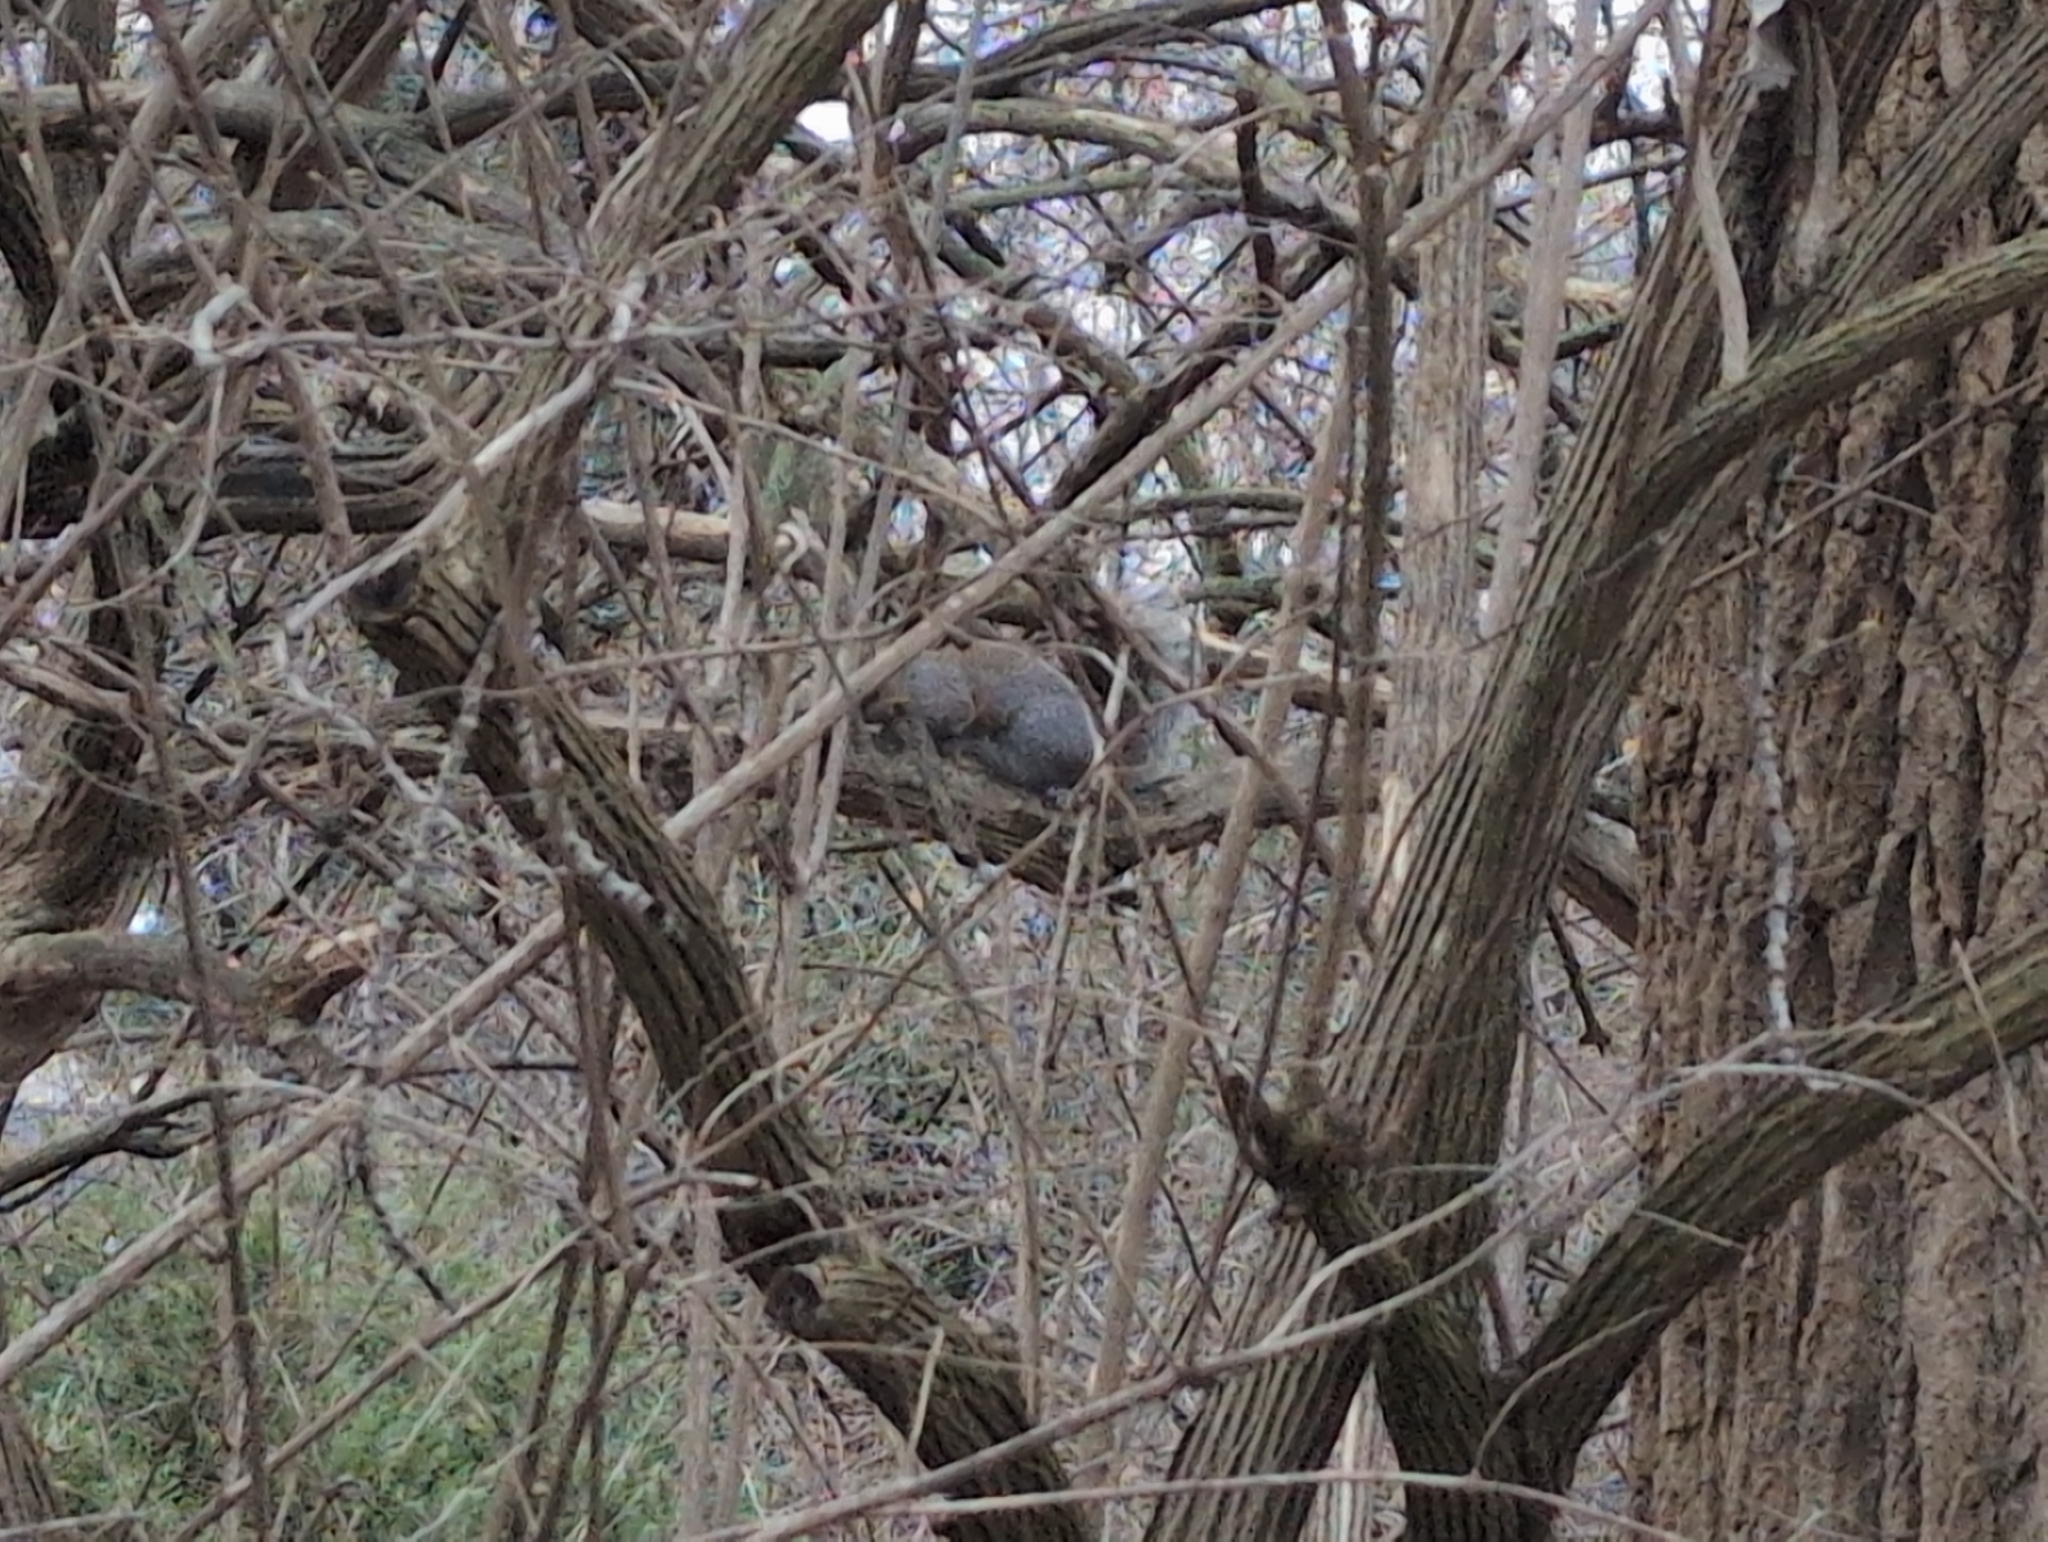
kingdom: Animalia
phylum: Chordata
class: Mammalia
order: Rodentia
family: Sciuridae
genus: Sciurus
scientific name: Sciurus carolinensis
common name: Eastern gray squirrel
